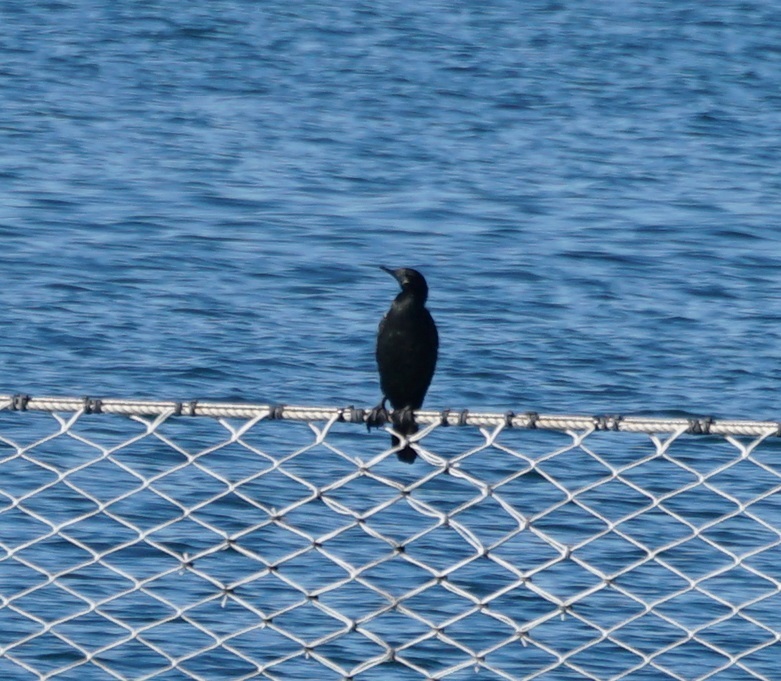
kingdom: Animalia
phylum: Chordata
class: Aves
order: Suliformes
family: Phalacrocoracidae
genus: Phalacrocorax
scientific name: Phalacrocorax sulcirostris
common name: Little black cormorant
